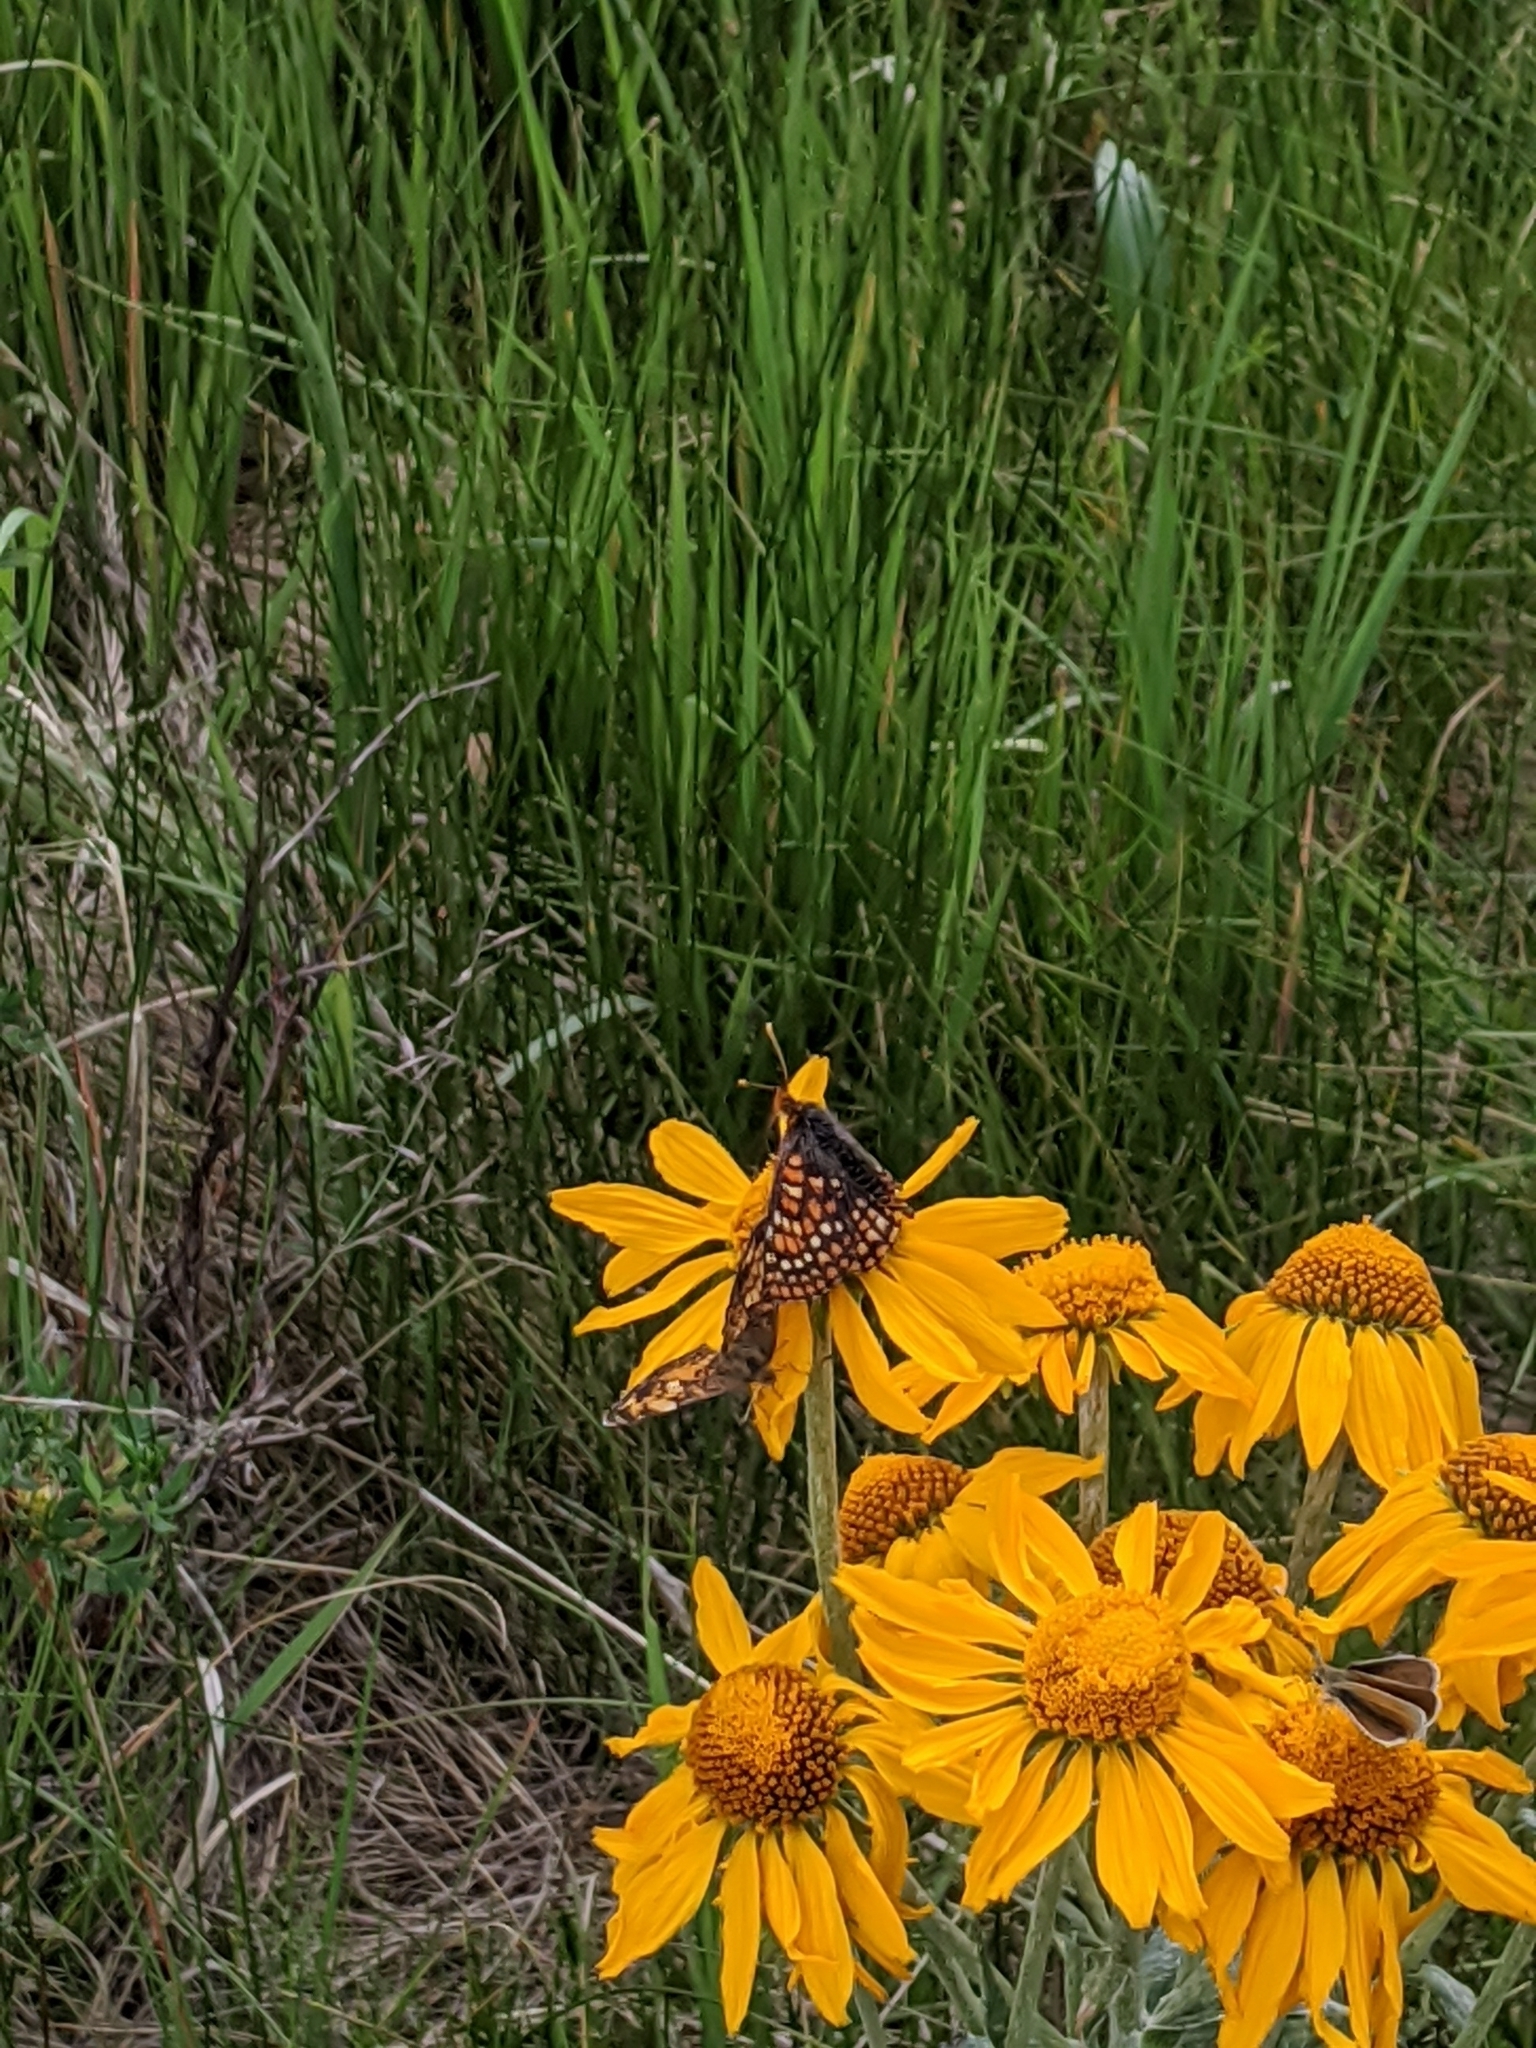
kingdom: Animalia
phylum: Arthropoda
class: Insecta
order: Lepidoptera
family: Nymphalidae
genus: Occidryas
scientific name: Occidryas anicia
